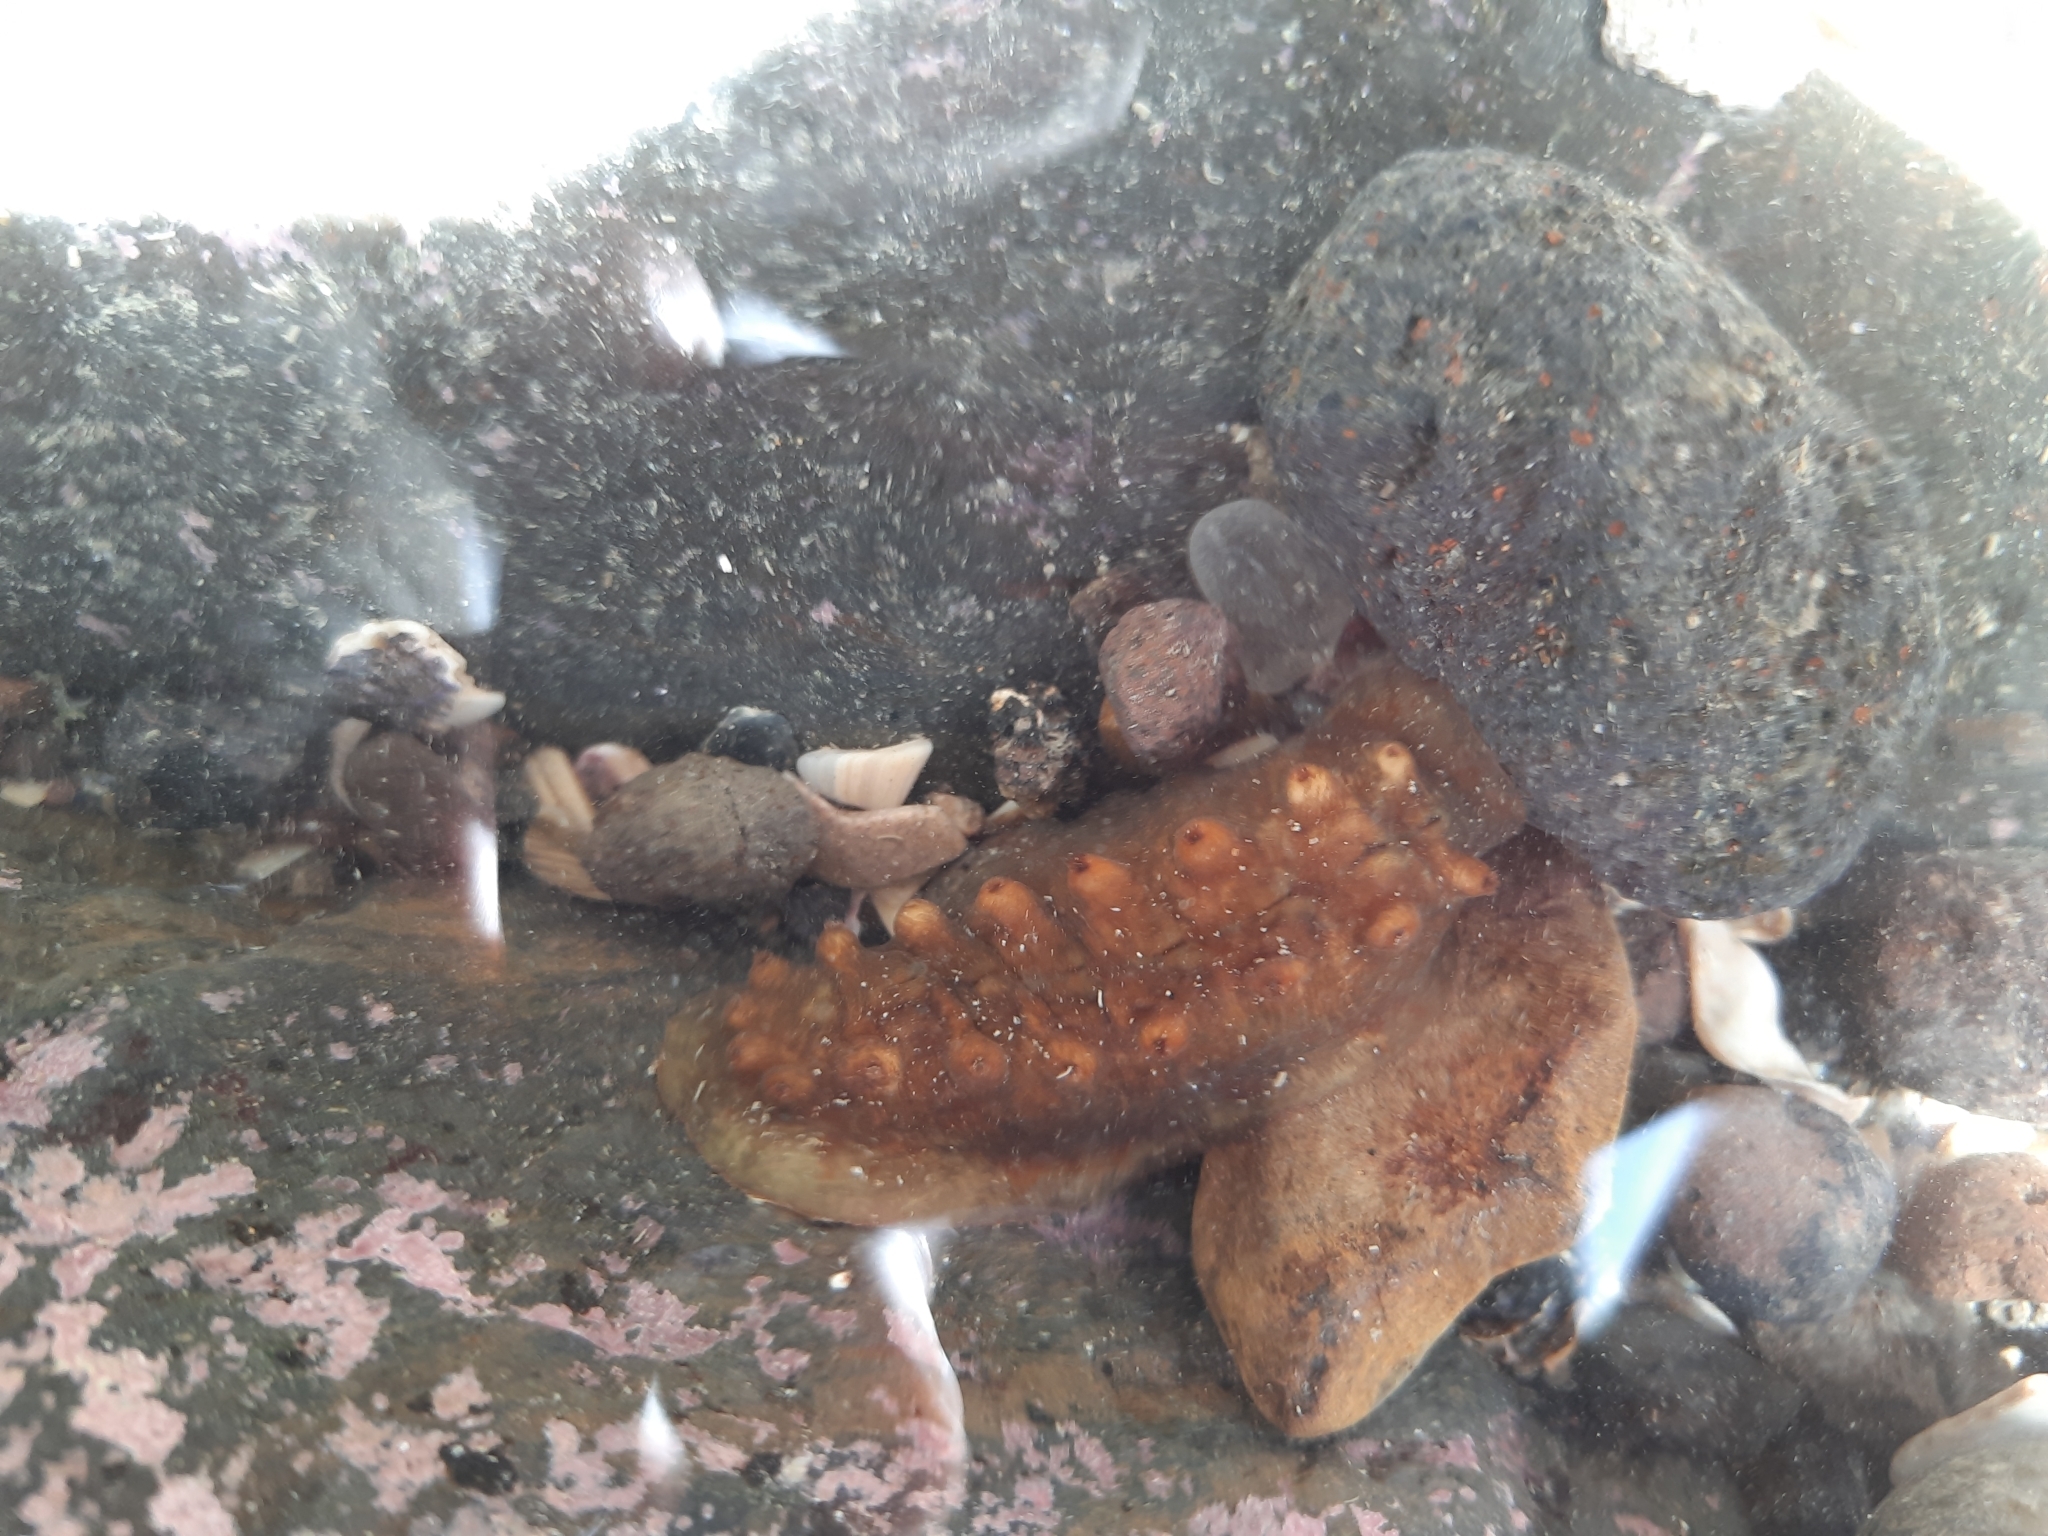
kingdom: Animalia
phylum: Mollusca
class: Polyplacophora
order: Chitonida
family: Acanthochitonidae
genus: Cryptoconchus
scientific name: Cryptoconchus porosus
